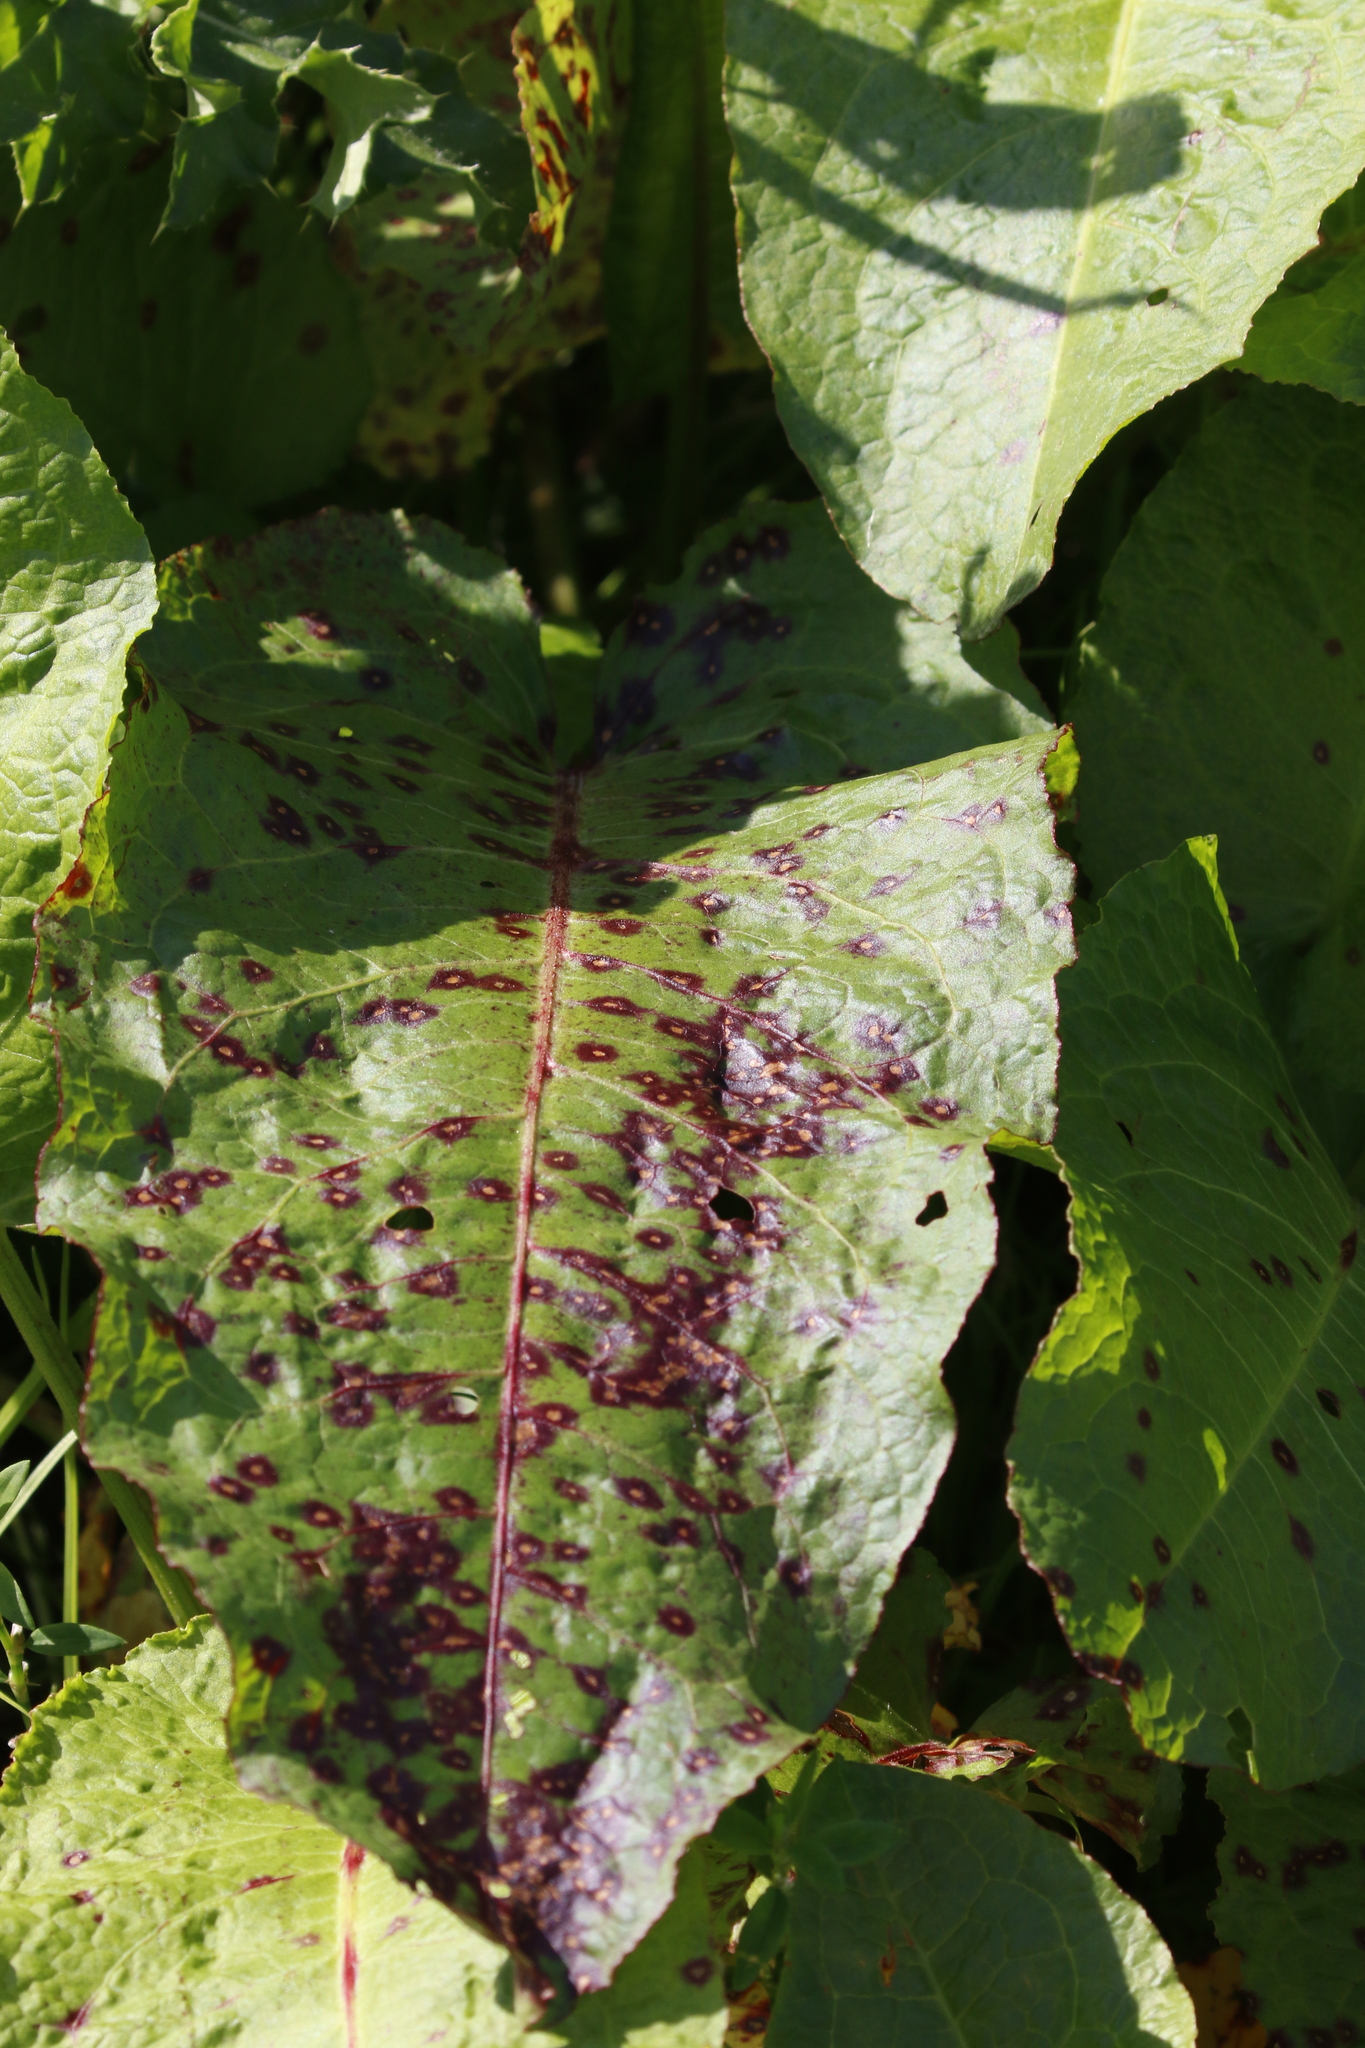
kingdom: Plantae
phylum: Tracheophyta
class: Magnoliopsida
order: Caryophyllales
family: Polygonaceae
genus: Rumex
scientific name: Rumex obtusifolius
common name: Bitter dock
